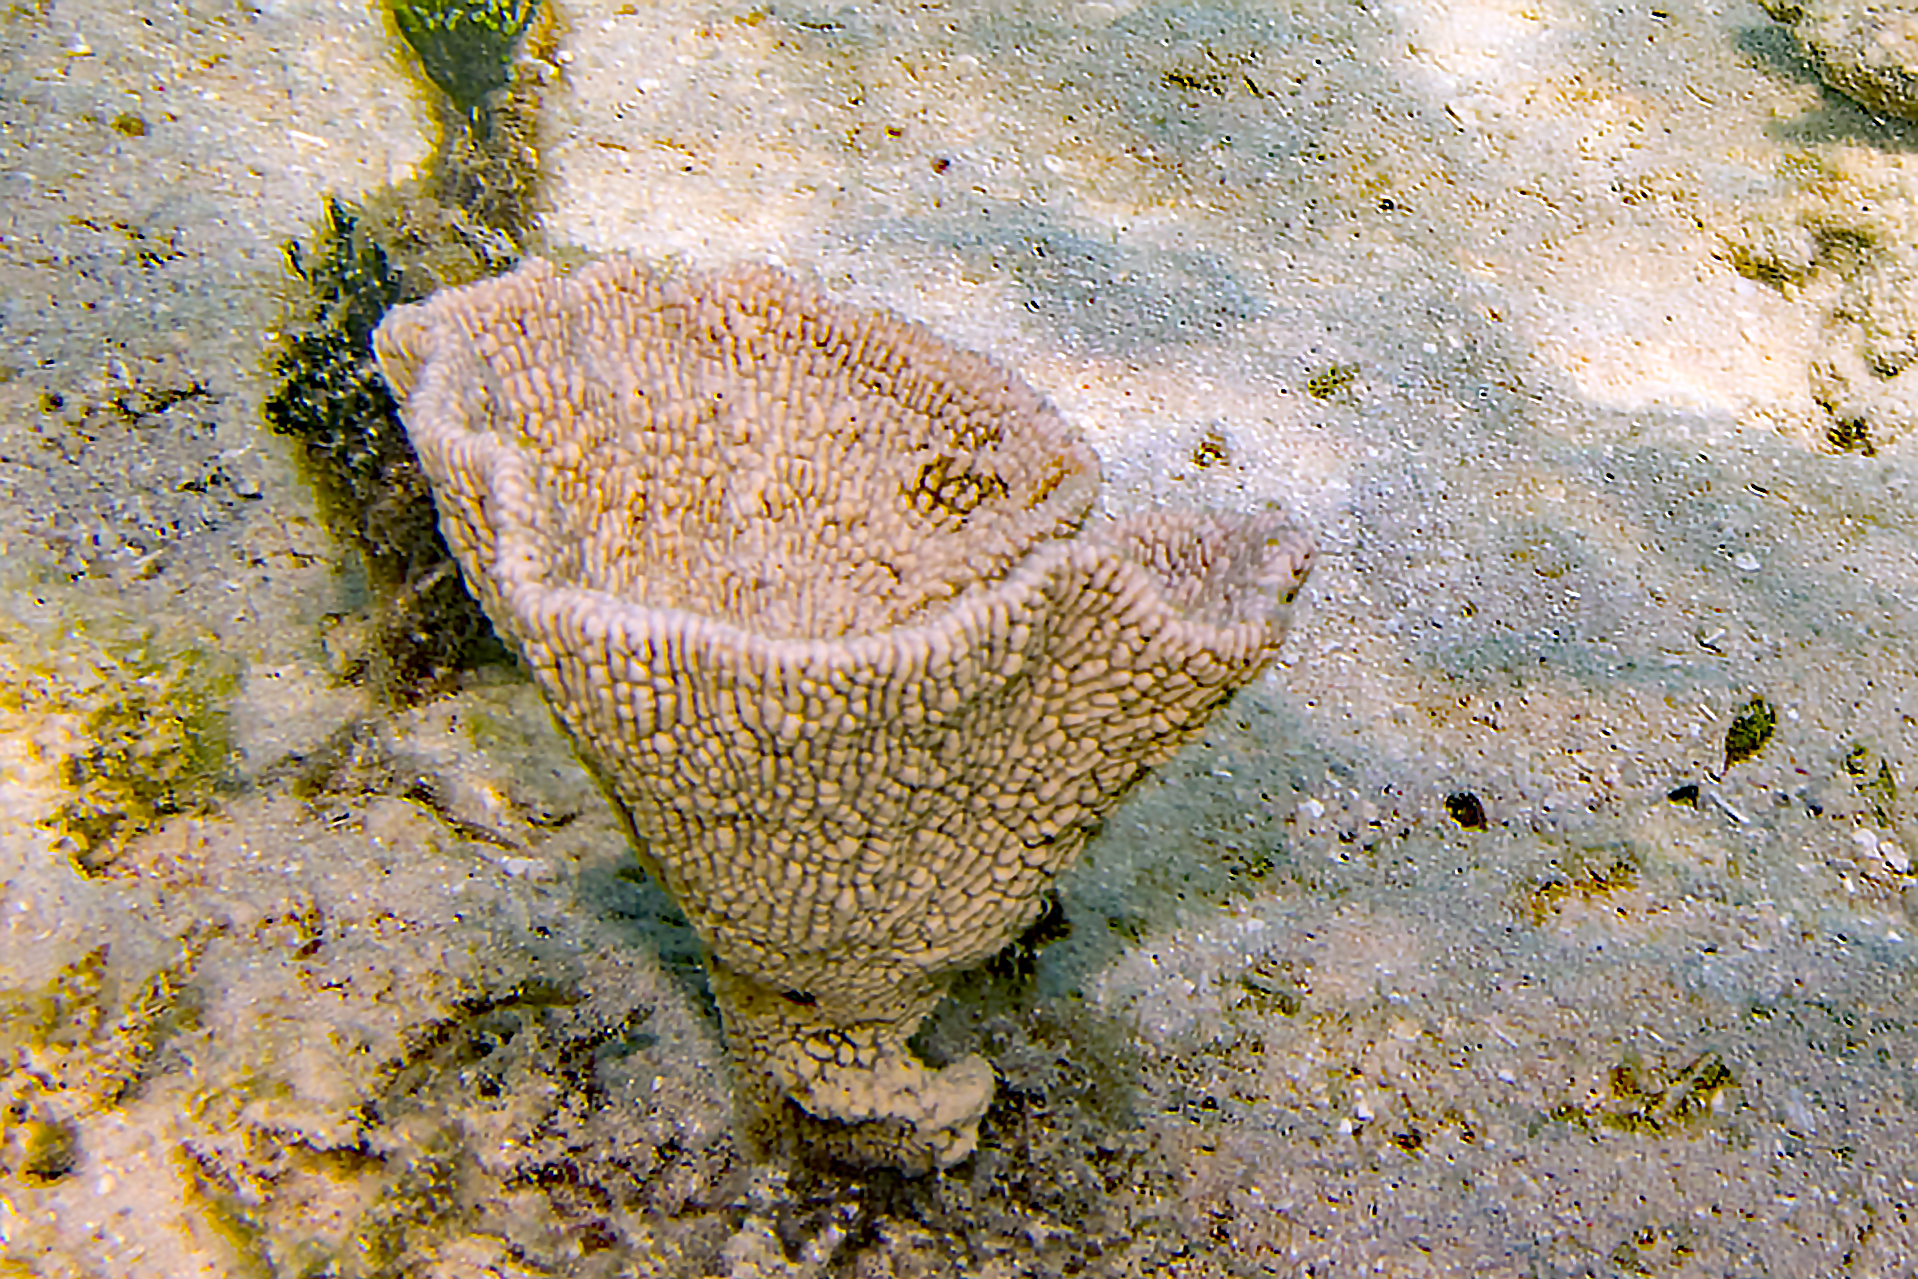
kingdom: Animalia
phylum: Porifera
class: Demospongiae
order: Dictyoceratida
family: Thorectidae
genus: Phyllospongia
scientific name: Phyllospongia foliascens
